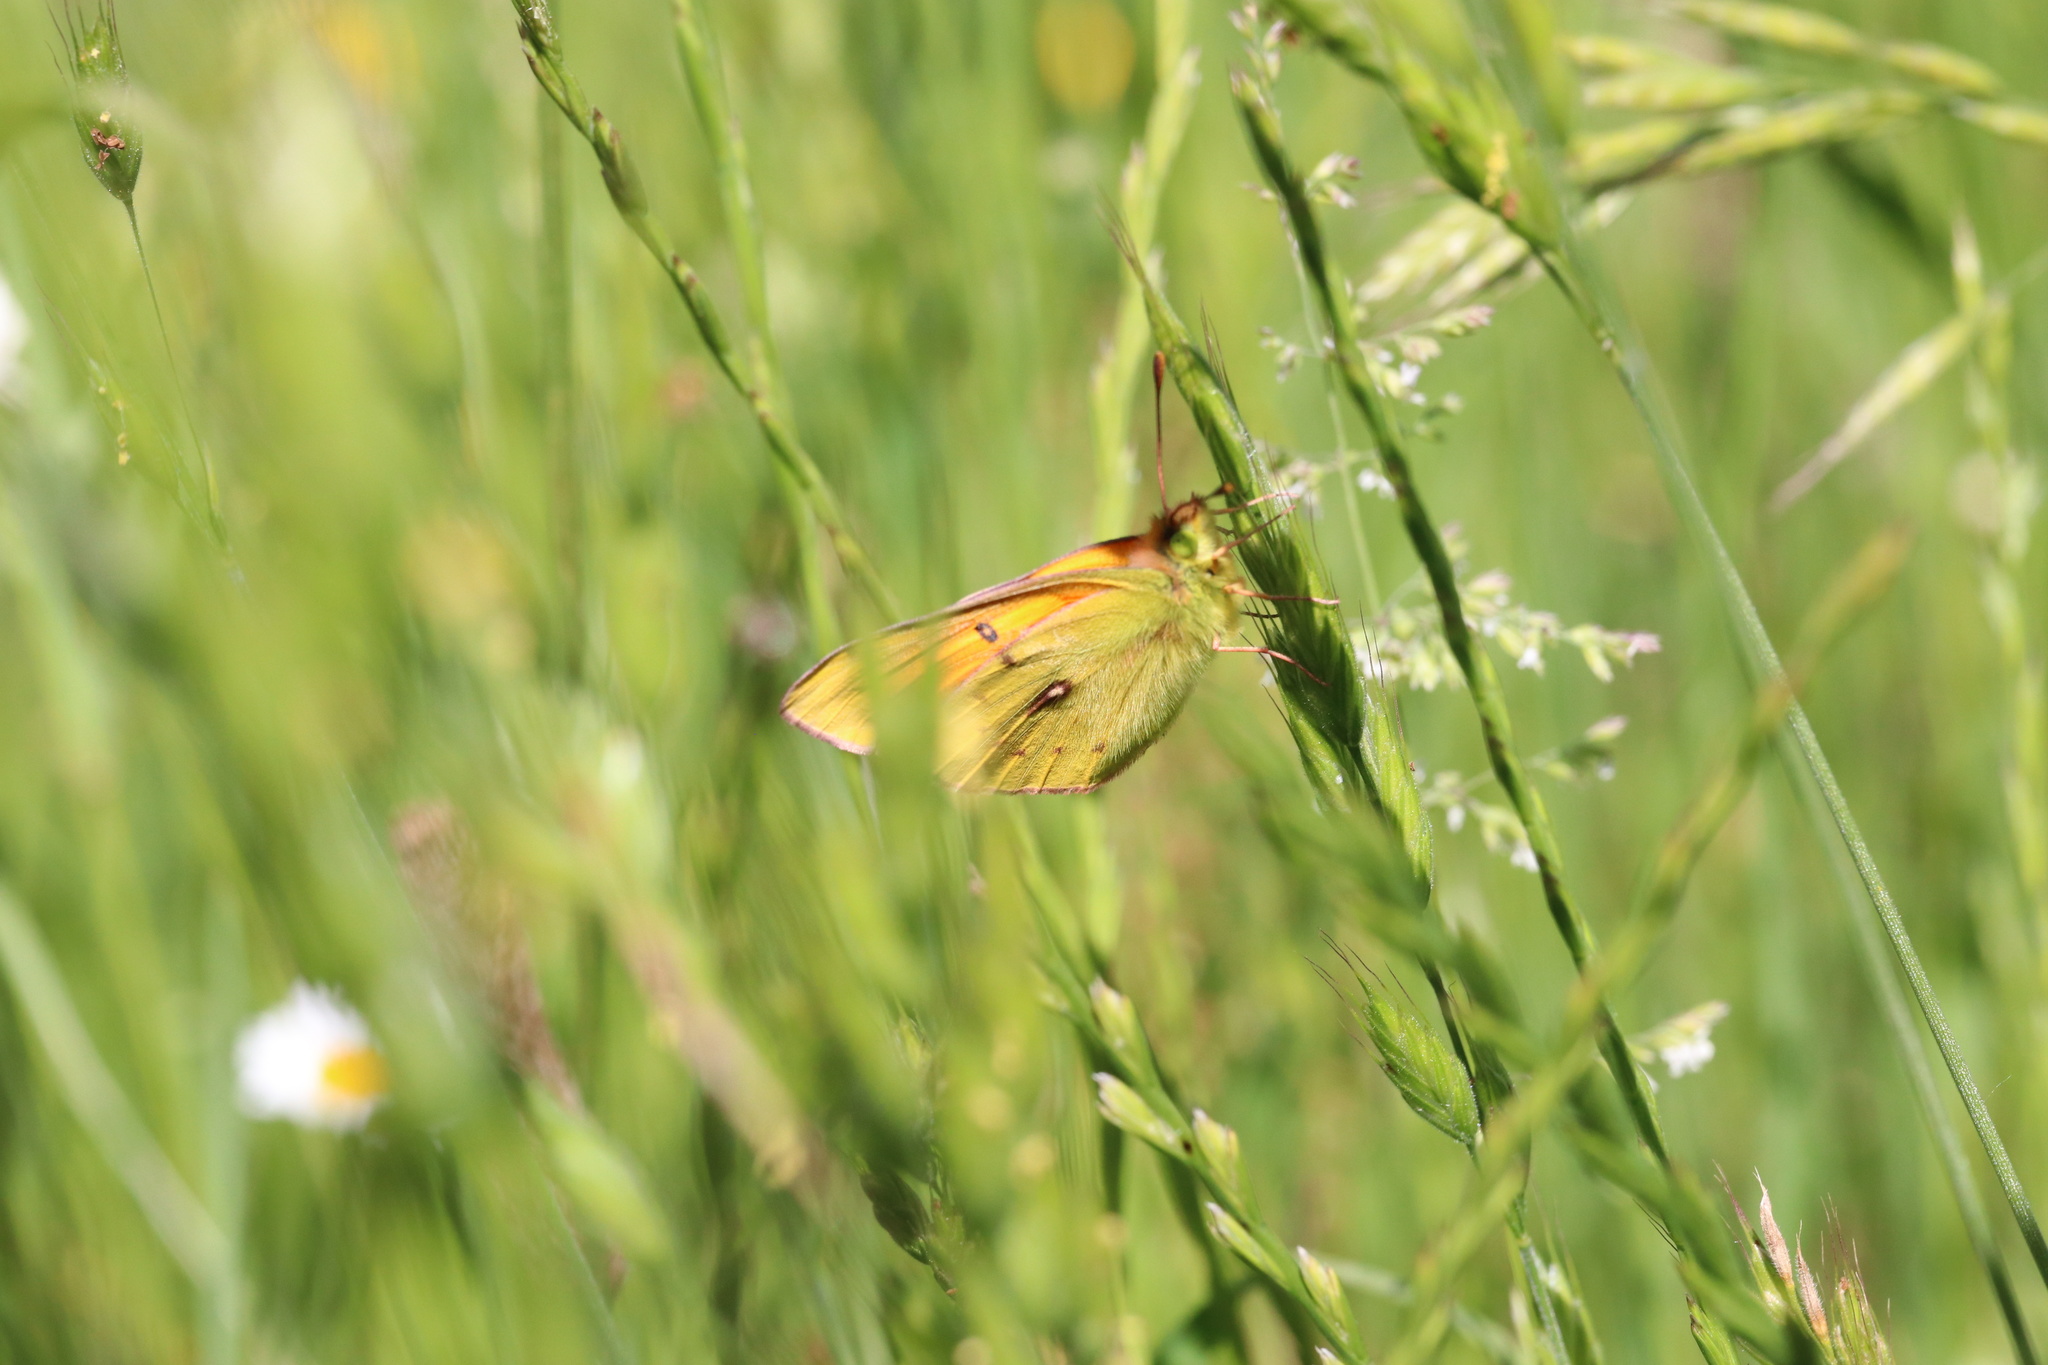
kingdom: Animalia
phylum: Arthropoda
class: Insecta
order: Lepidoptera
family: Pieridae
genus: Colias
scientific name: Colias vauthierii
